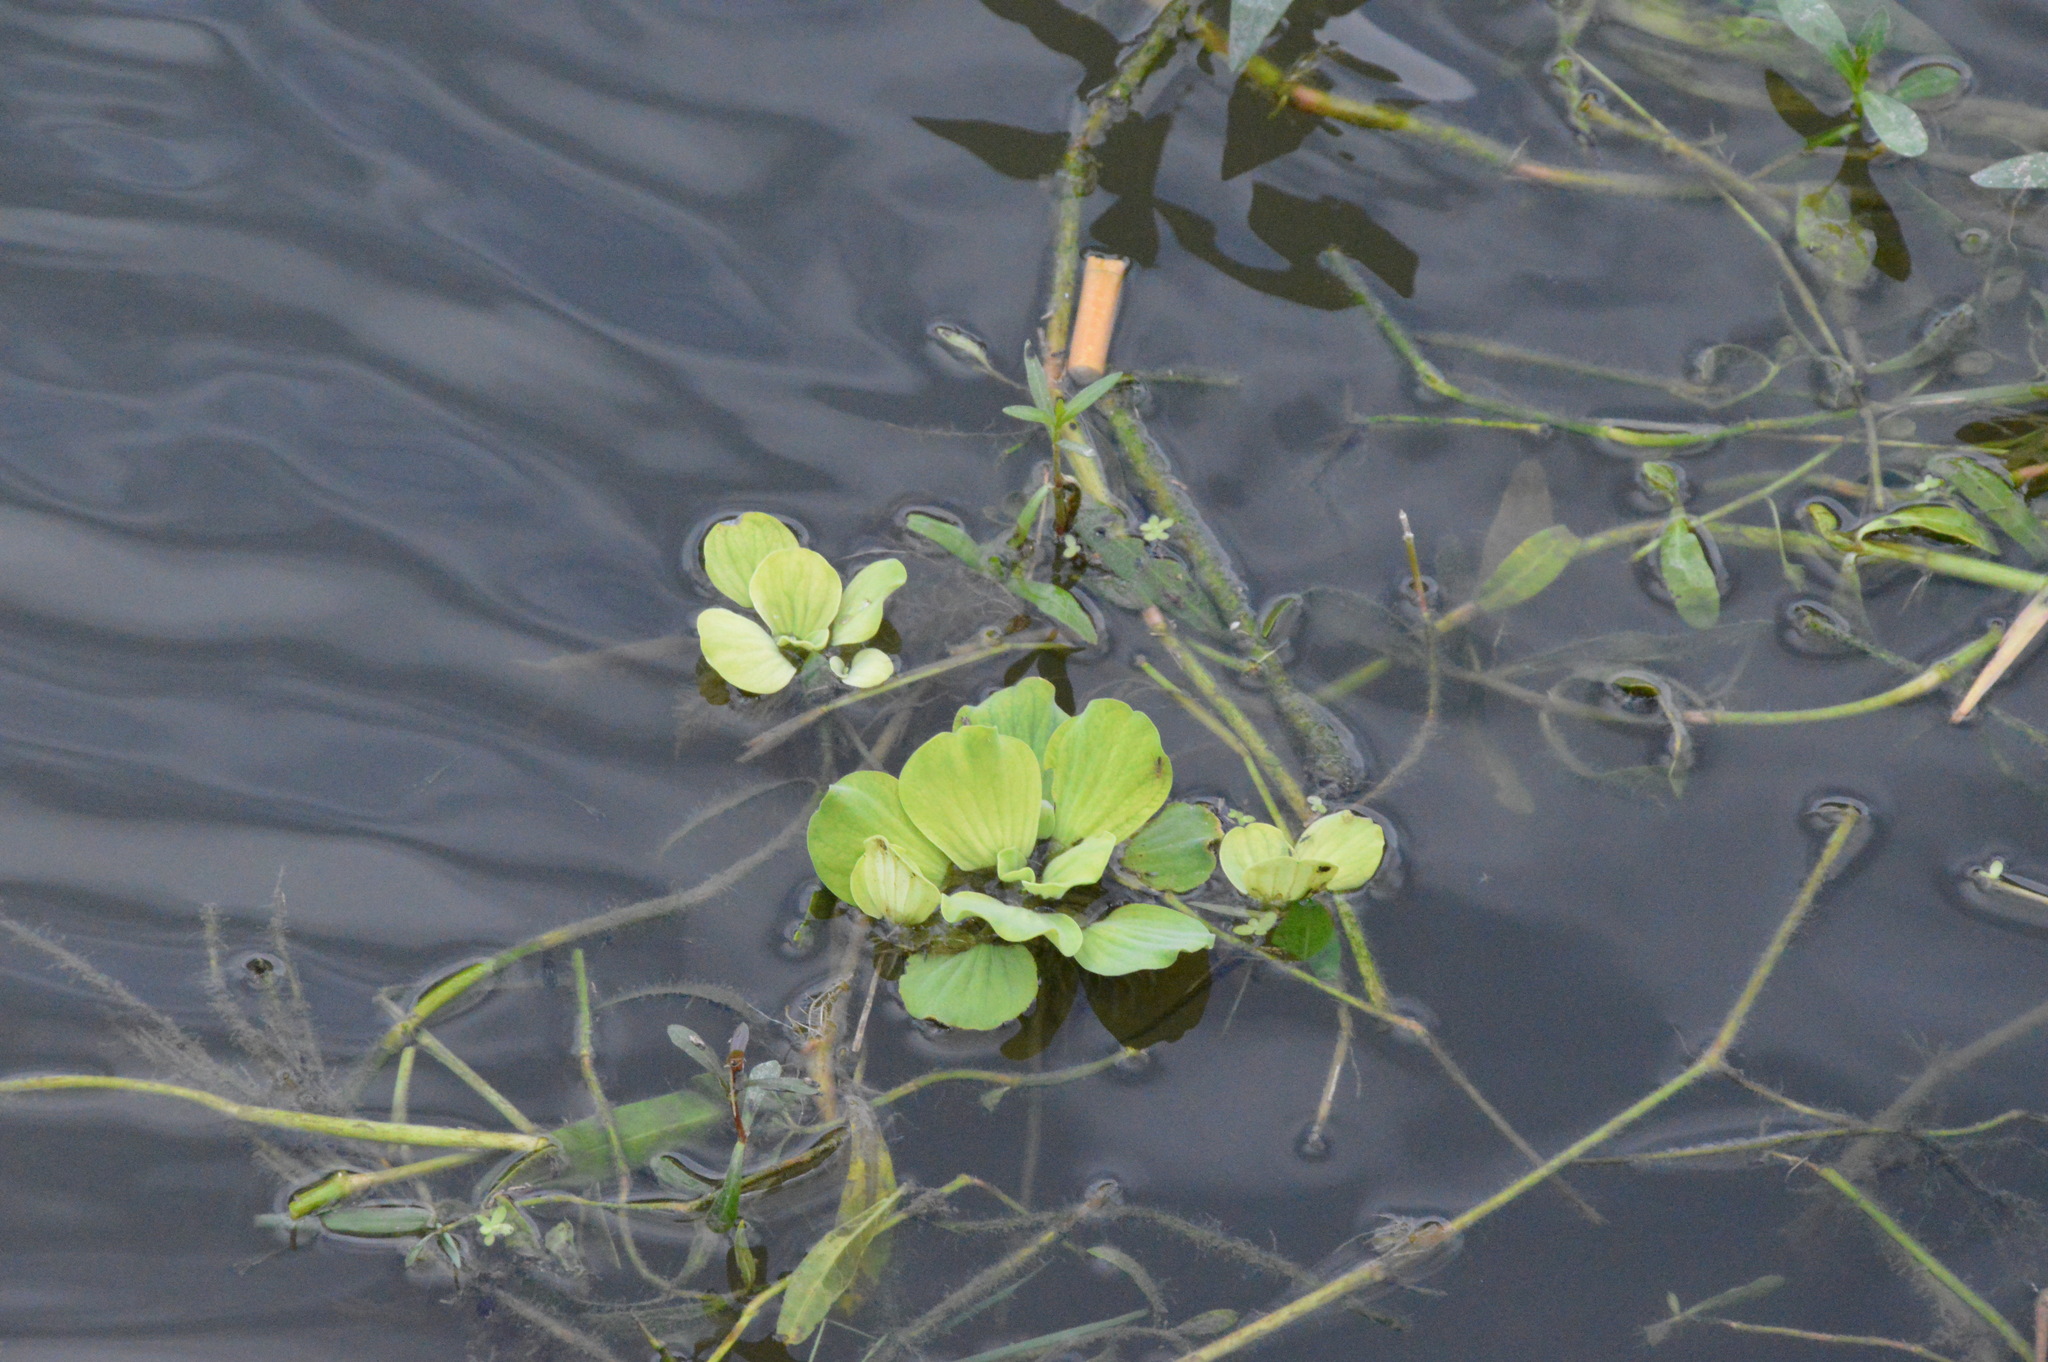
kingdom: Plantae
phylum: Tracheophyta
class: Liliopsida
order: Alismatales
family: Araceae
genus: Pistia
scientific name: Pistia stratiotes
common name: Water lettuce
